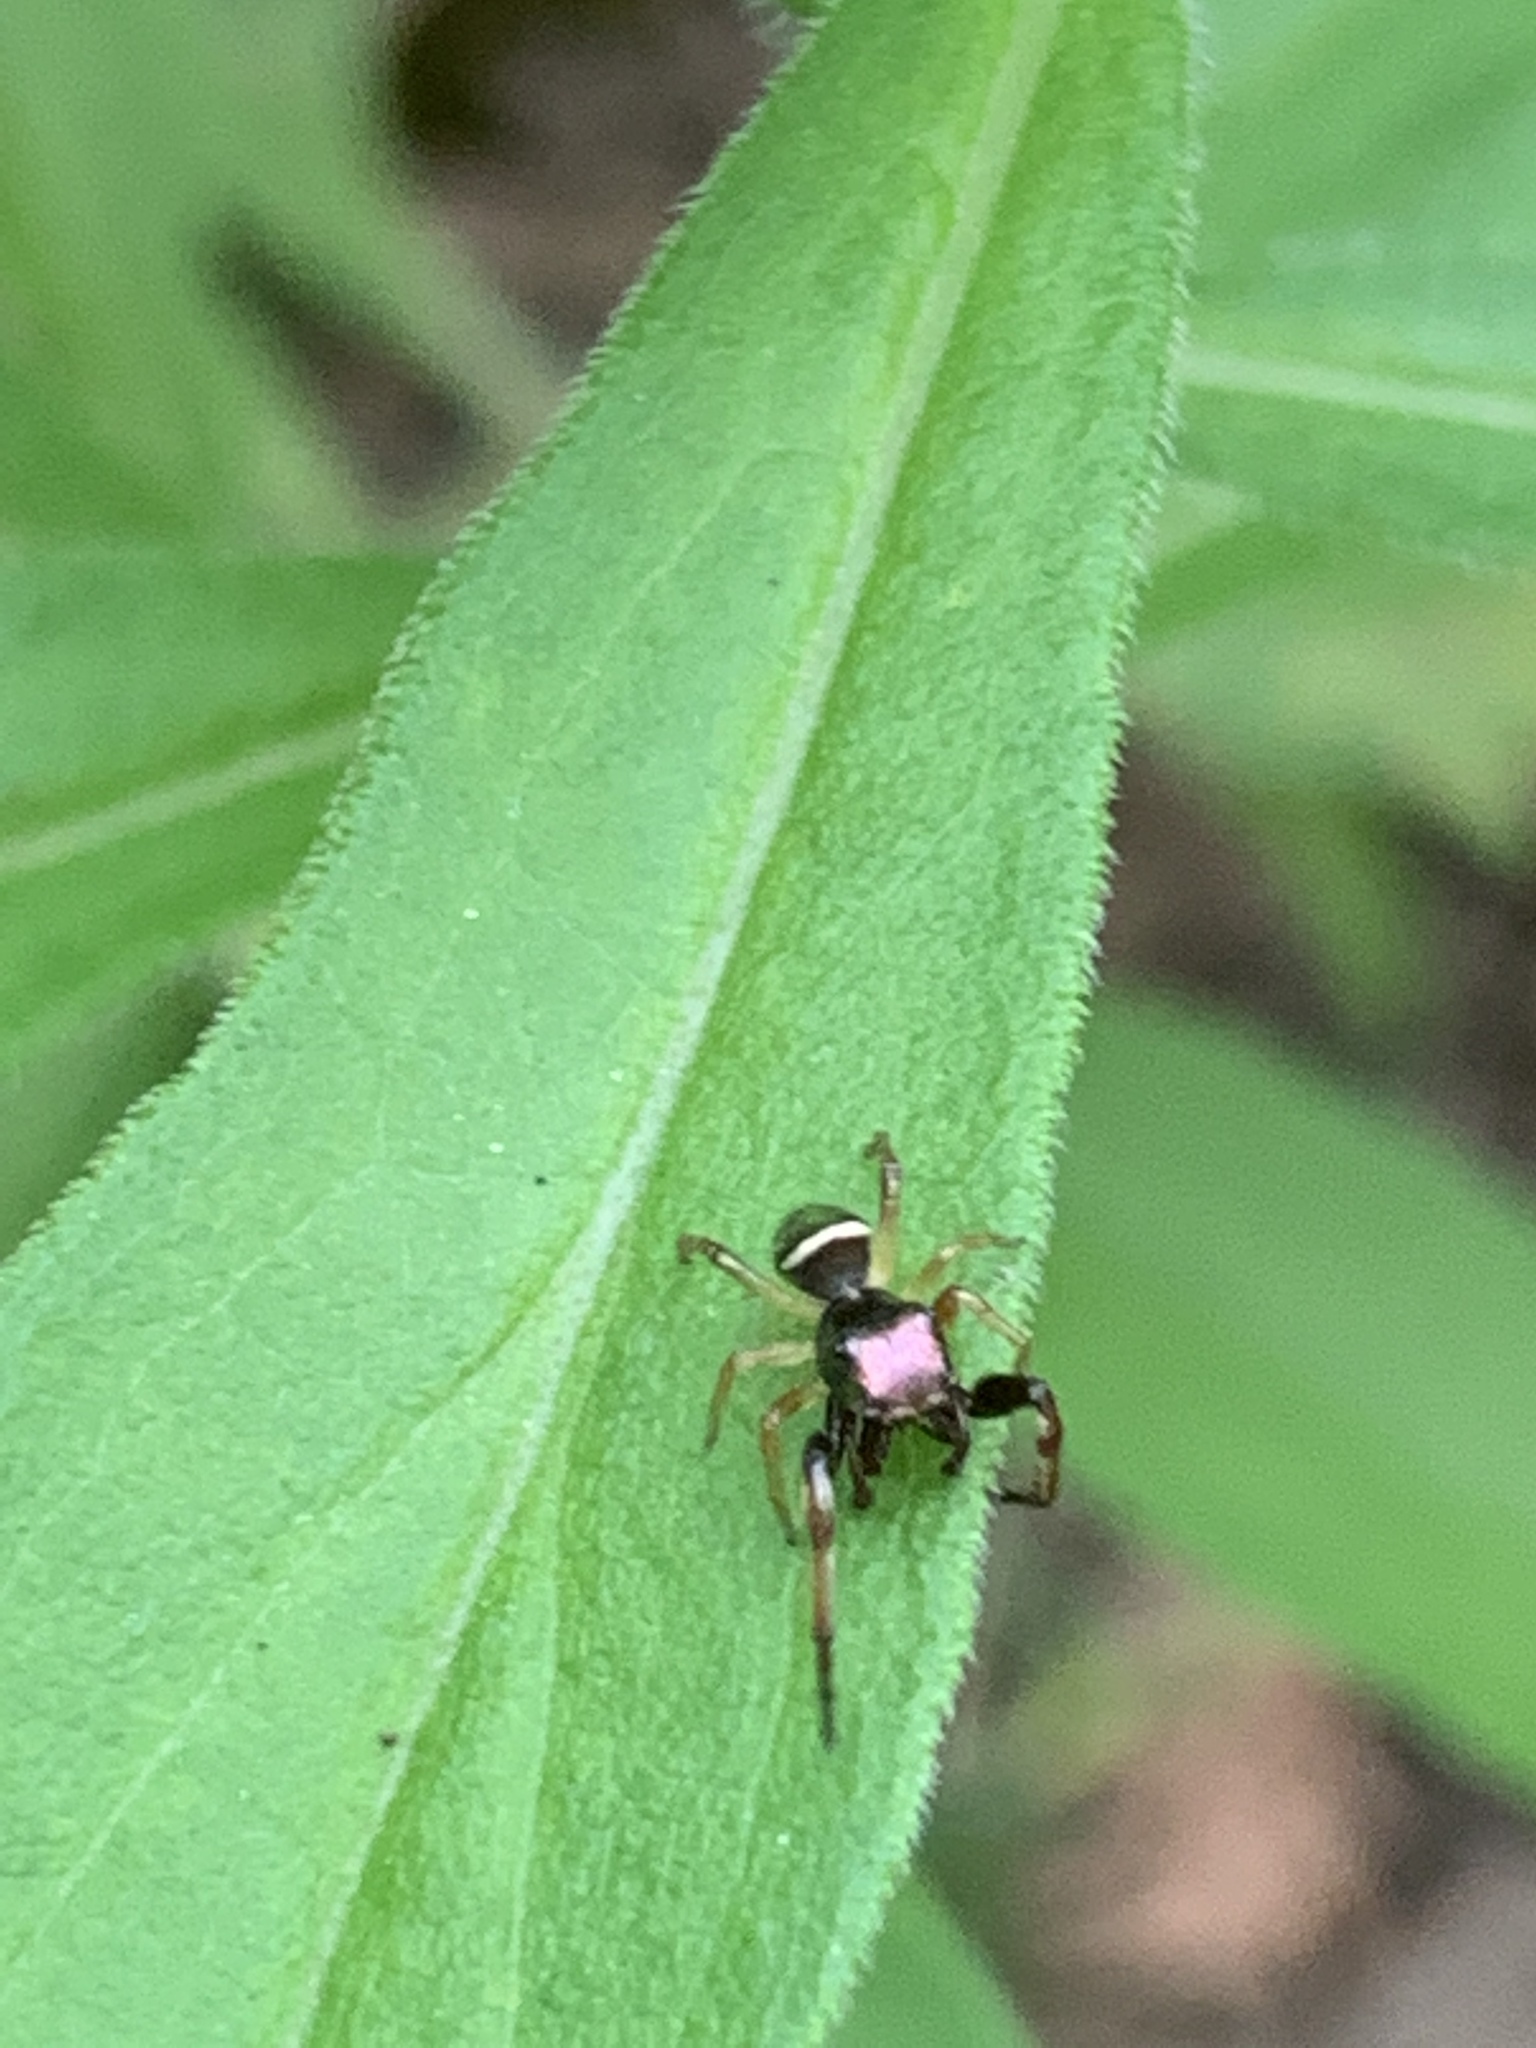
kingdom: Animalia
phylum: Arthropoda
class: Arachnida
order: Araneae
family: Salticidae
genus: Zygoballus
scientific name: Zygoballus rufipes
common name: Jumping spiders
